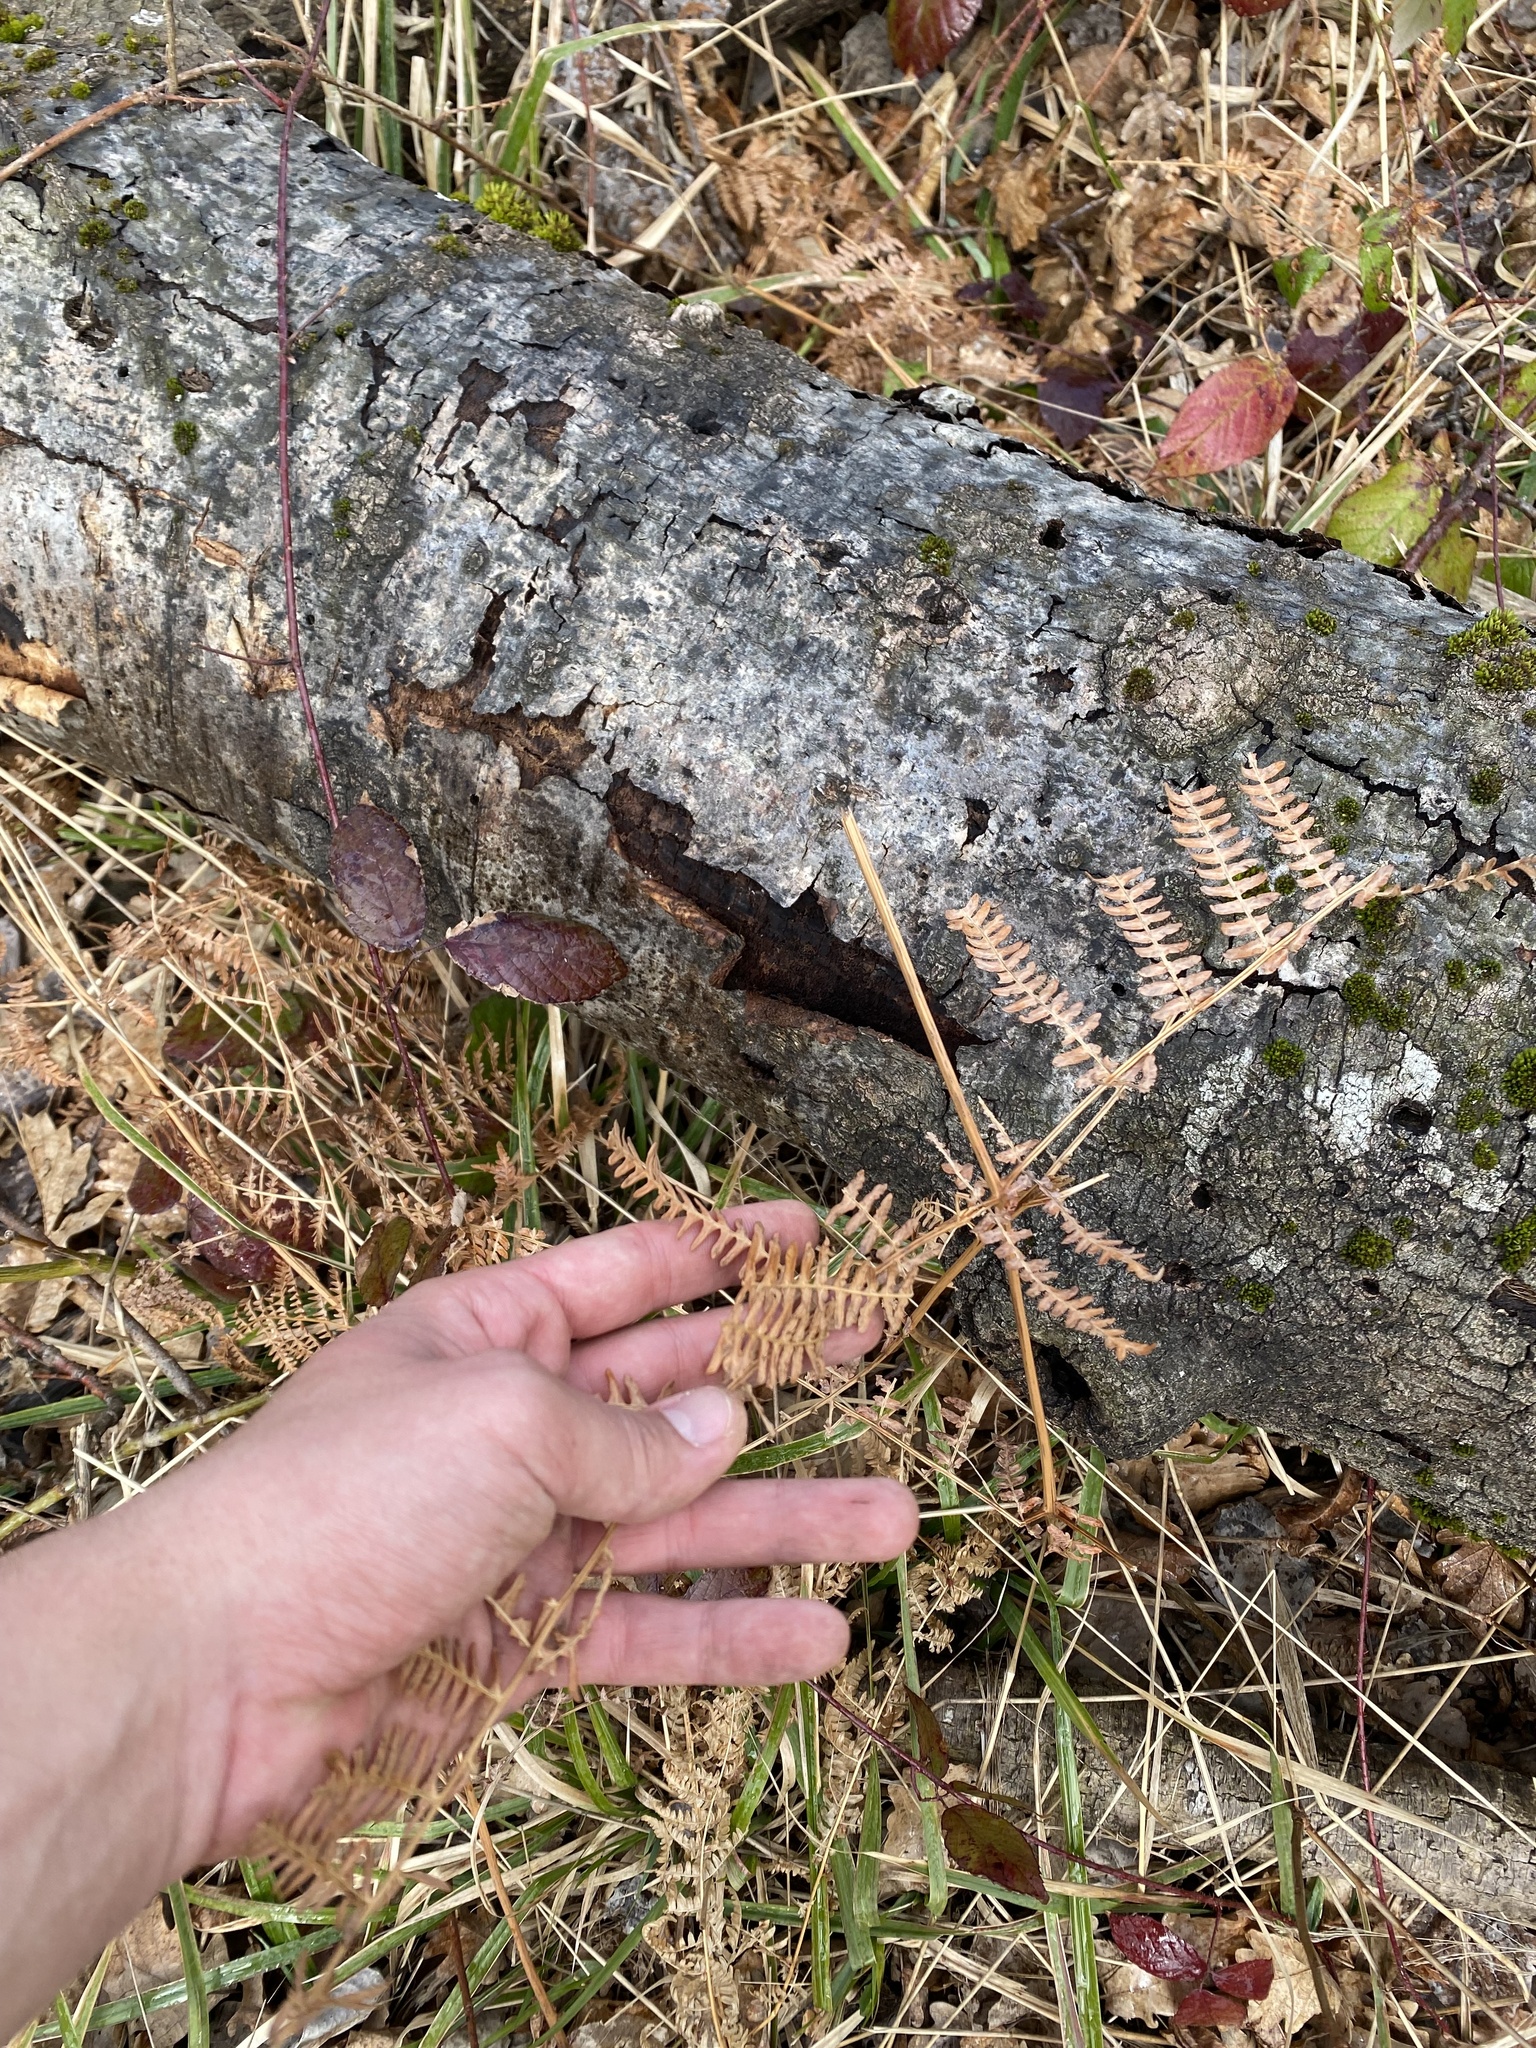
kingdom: Plantae
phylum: Tracheophyta
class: Polypodiopsida
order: Polypodiales
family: Dennstaedtiaceae
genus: Pteridium
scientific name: Pteridium tauricum
